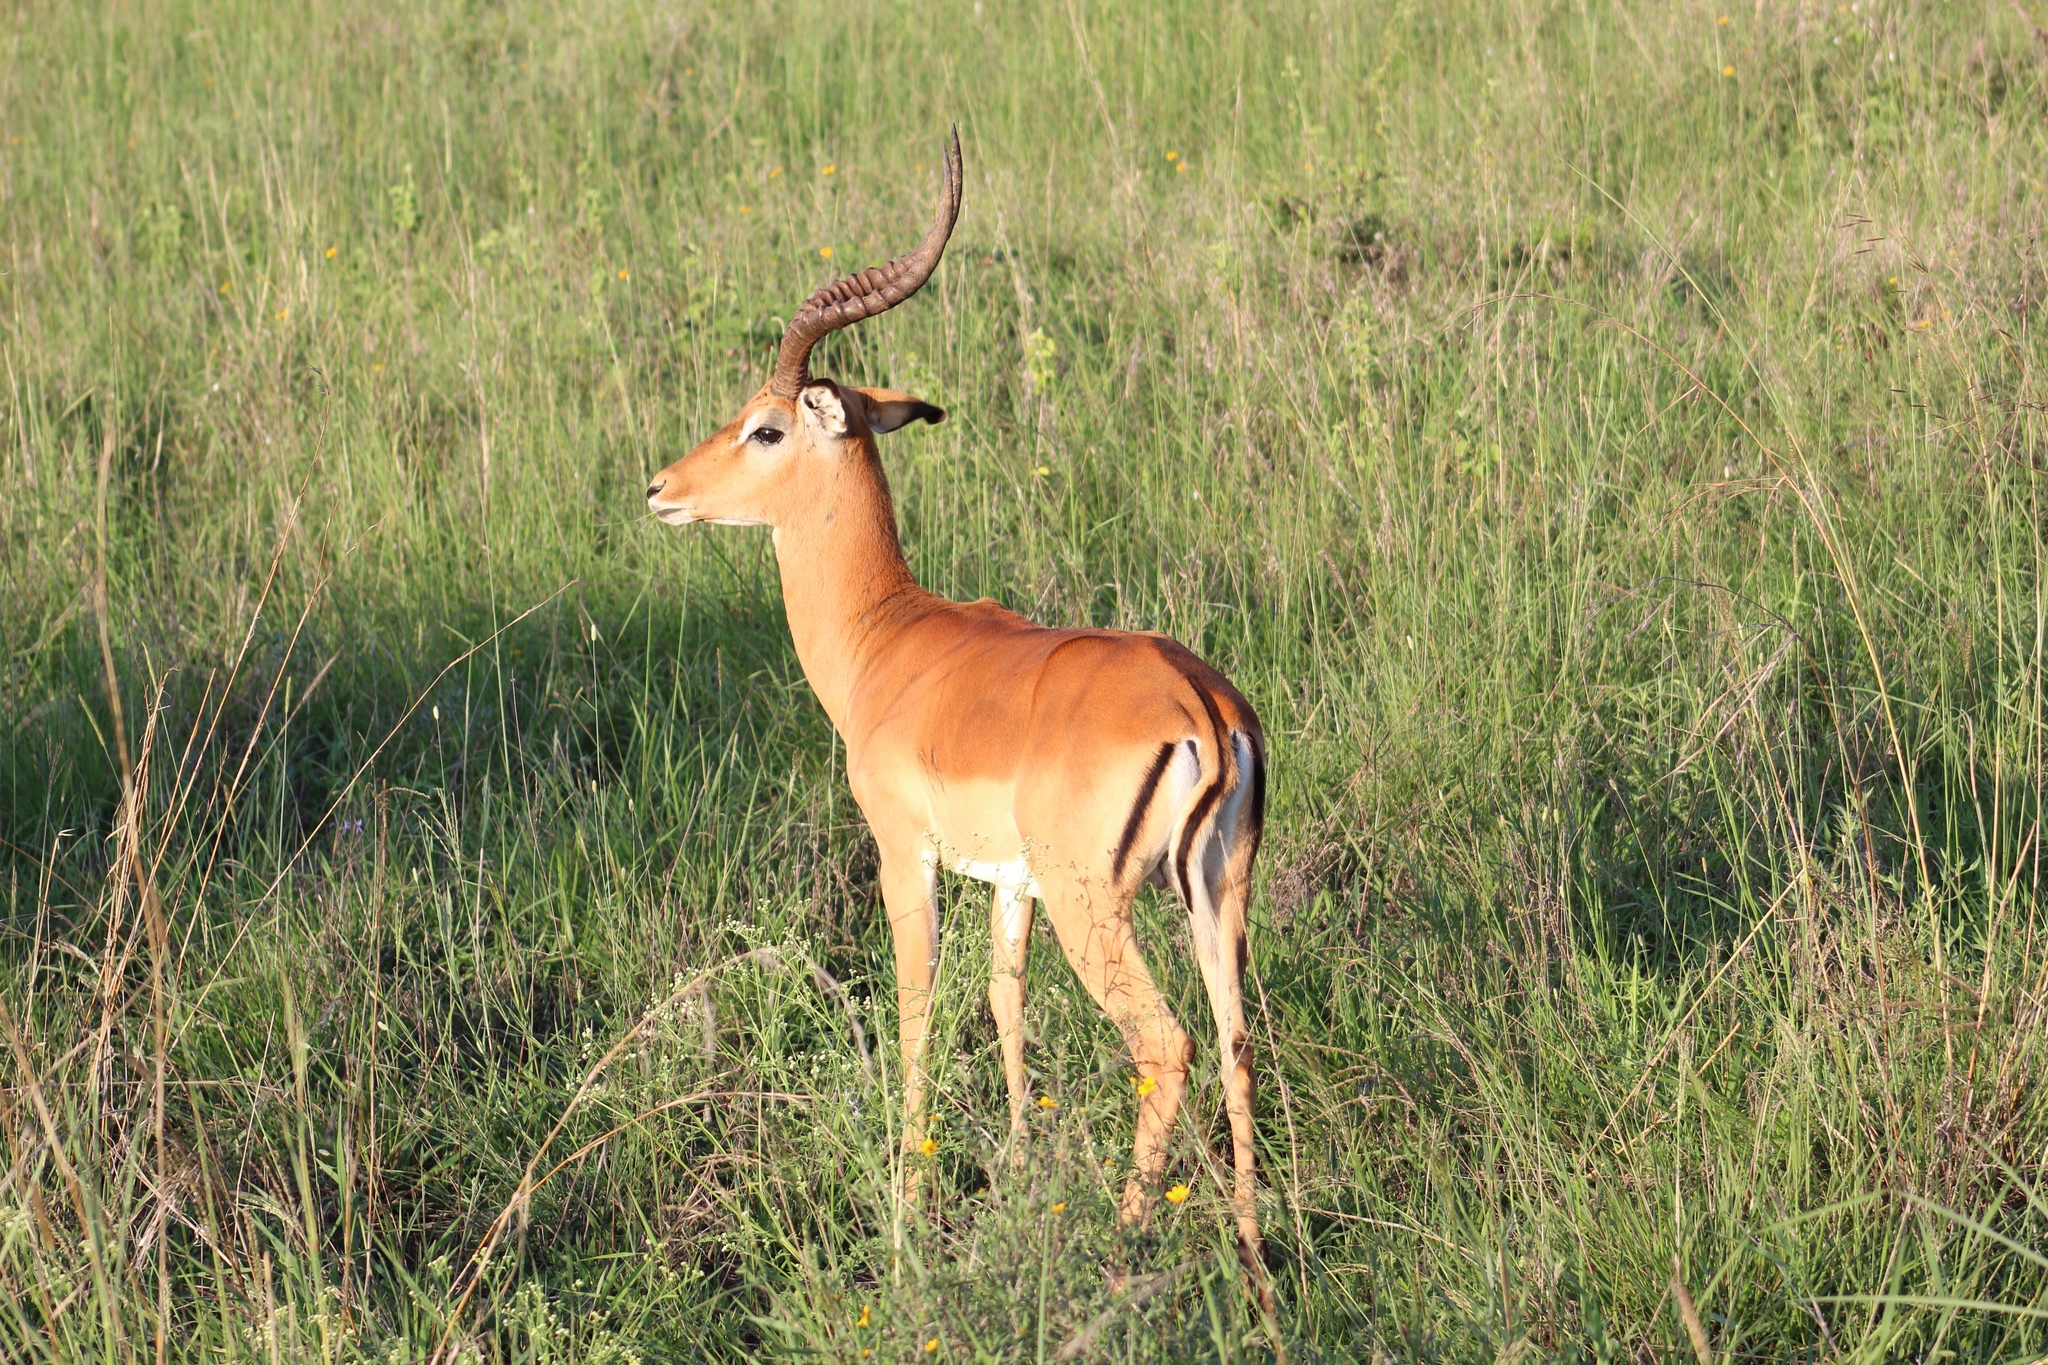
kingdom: Animalia
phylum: Chordata
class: Mammalia
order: Artiodactyla
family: Bovidae
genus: Aepyceros
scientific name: Aepyceros melampus
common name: Impala
